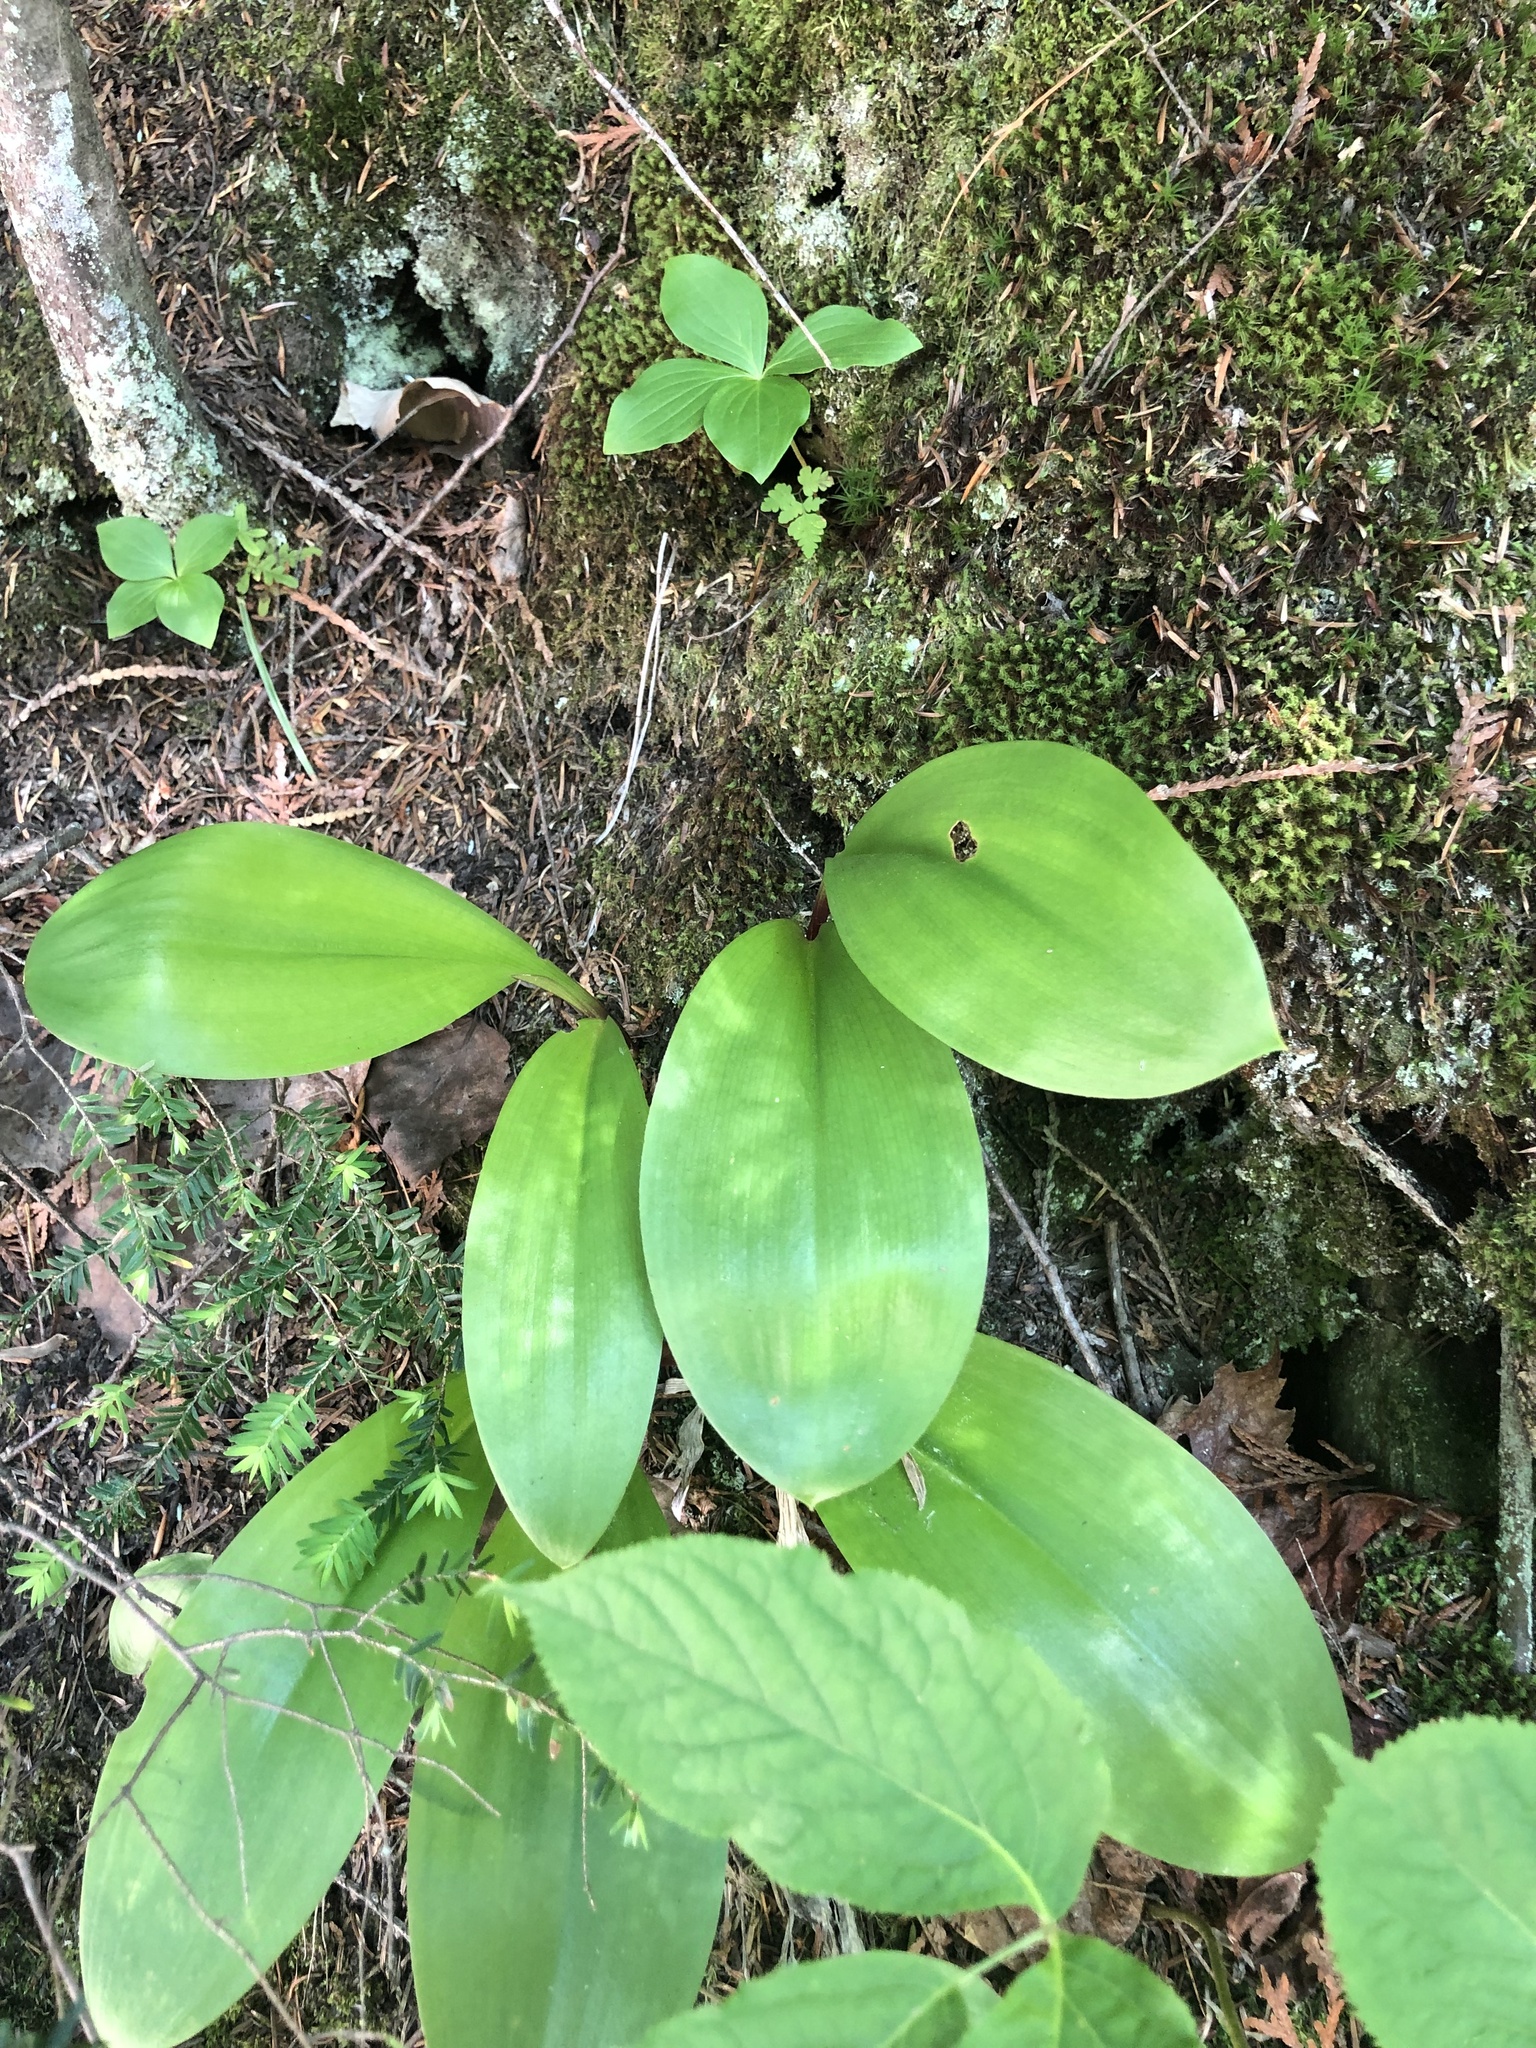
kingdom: Plantae
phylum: Tracheophyta
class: Liliopsida
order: Liliales
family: Liliaceae
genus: Clintonia
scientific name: Clintonia borealis
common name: Yellow clintonia
